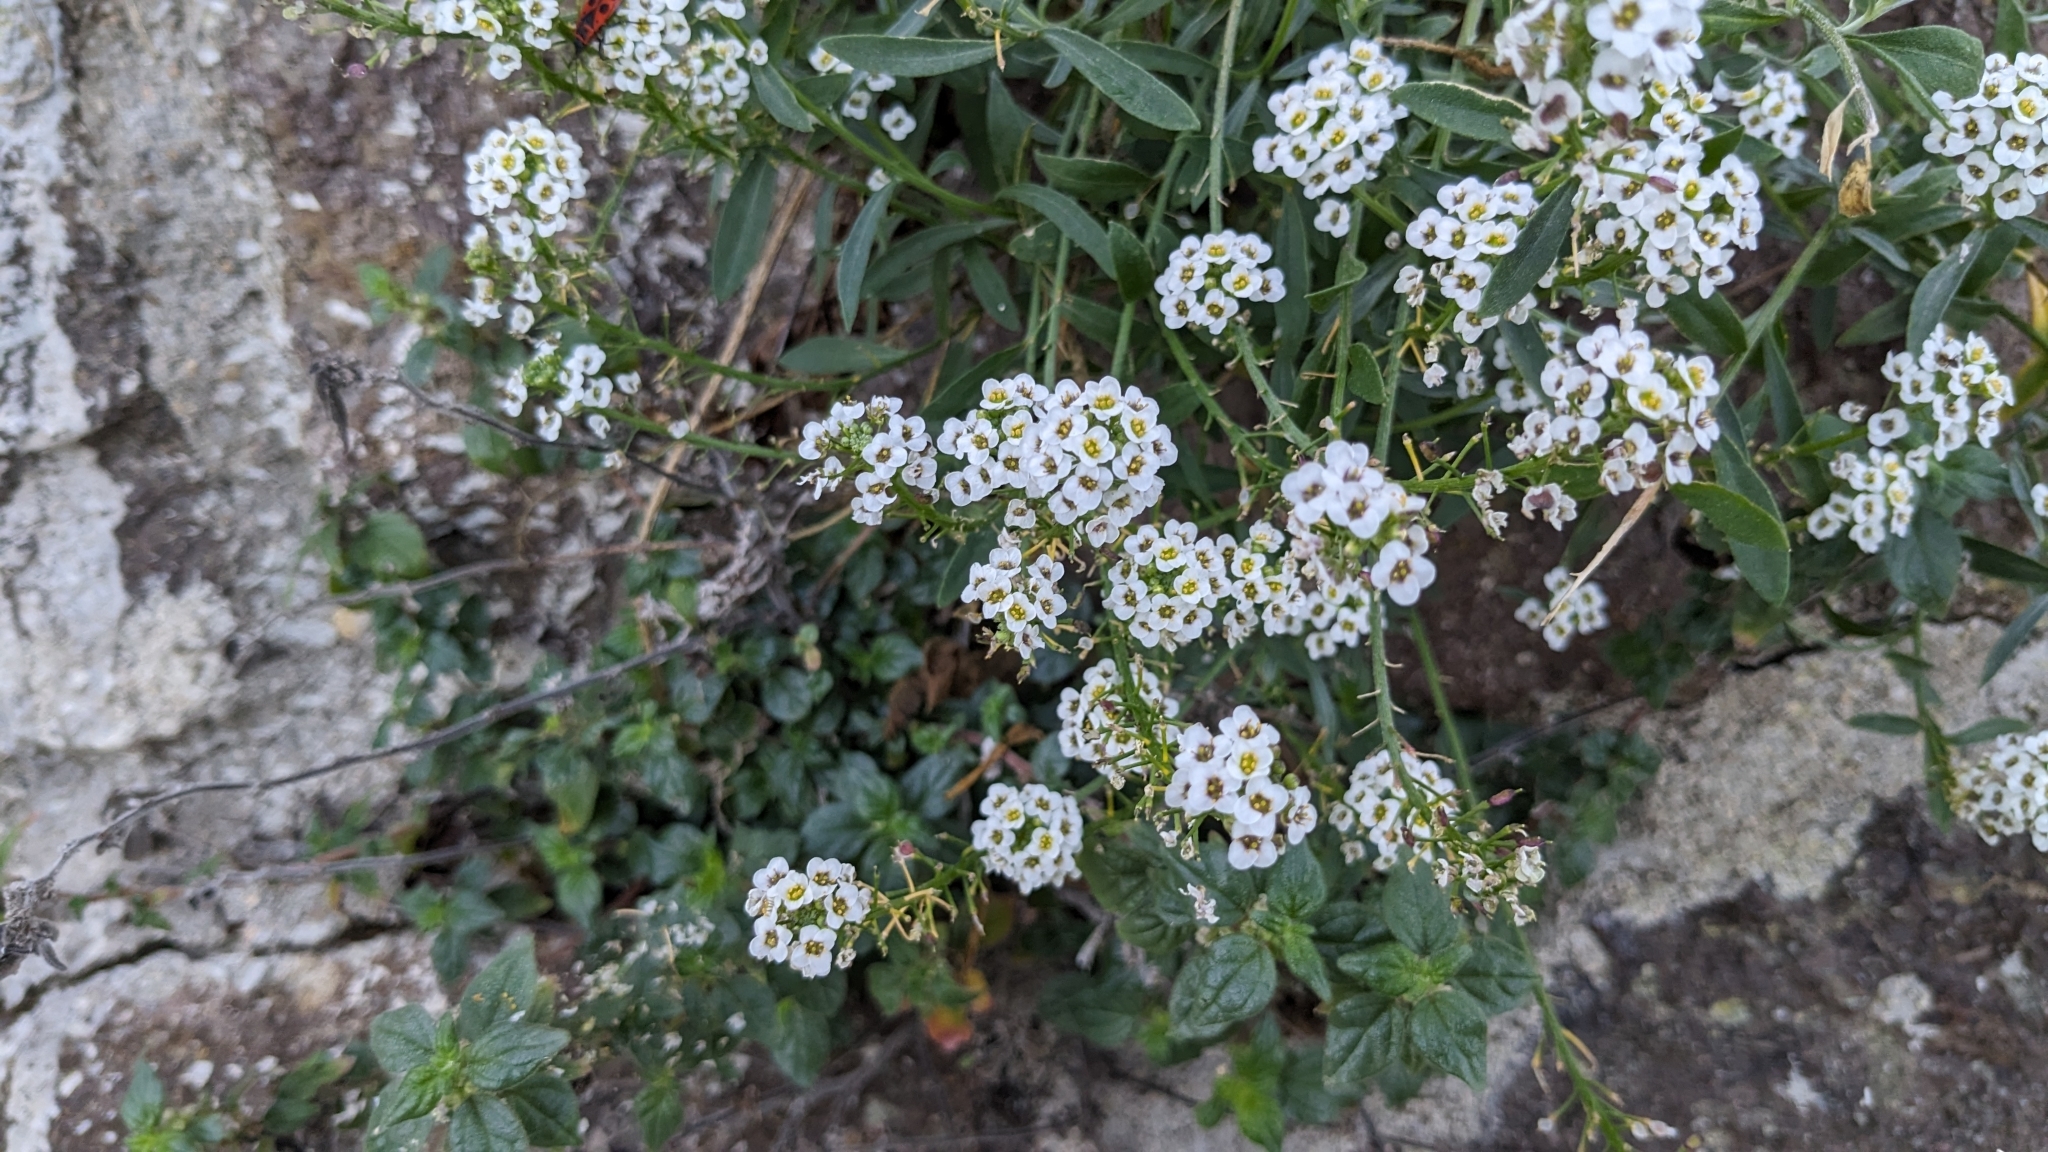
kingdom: Plantae
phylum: Tracheophyta
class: Magnoliopsida
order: Brassicales
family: Brassicaceae
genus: Lobularia
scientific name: Lobularia maritima
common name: Sweet alison
